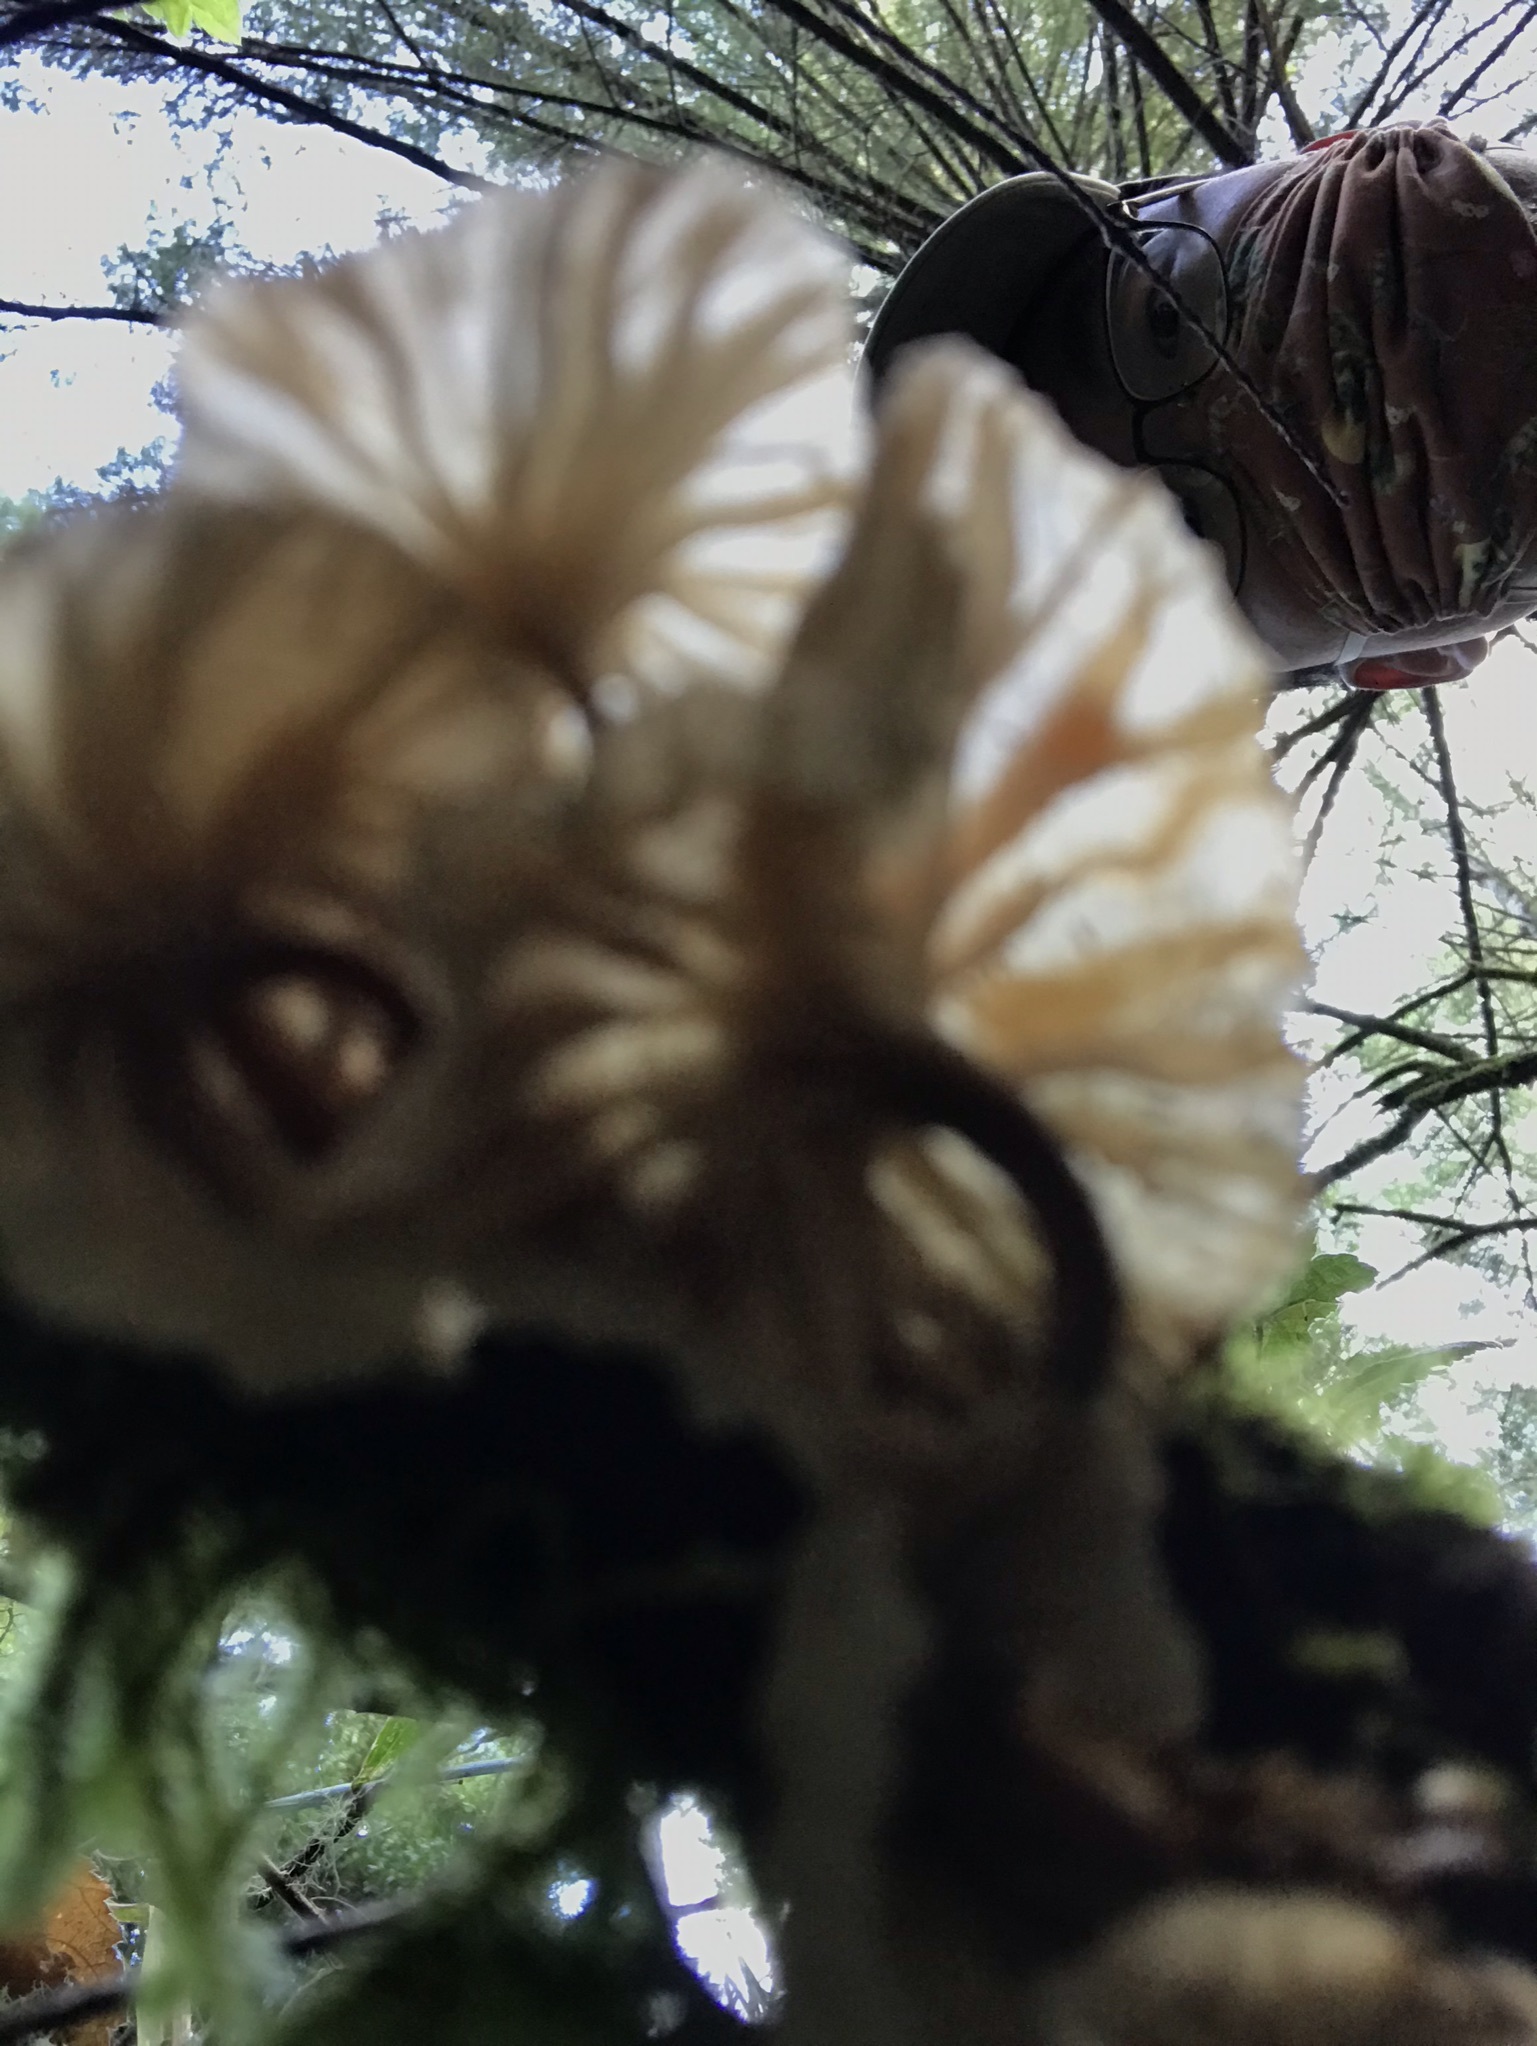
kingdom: Fungi
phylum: Basidiomycota
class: Agaricomycetes
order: Agaricales
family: Omphalotaceae
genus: Marasmiellus
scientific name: Marasmiellus candidus
